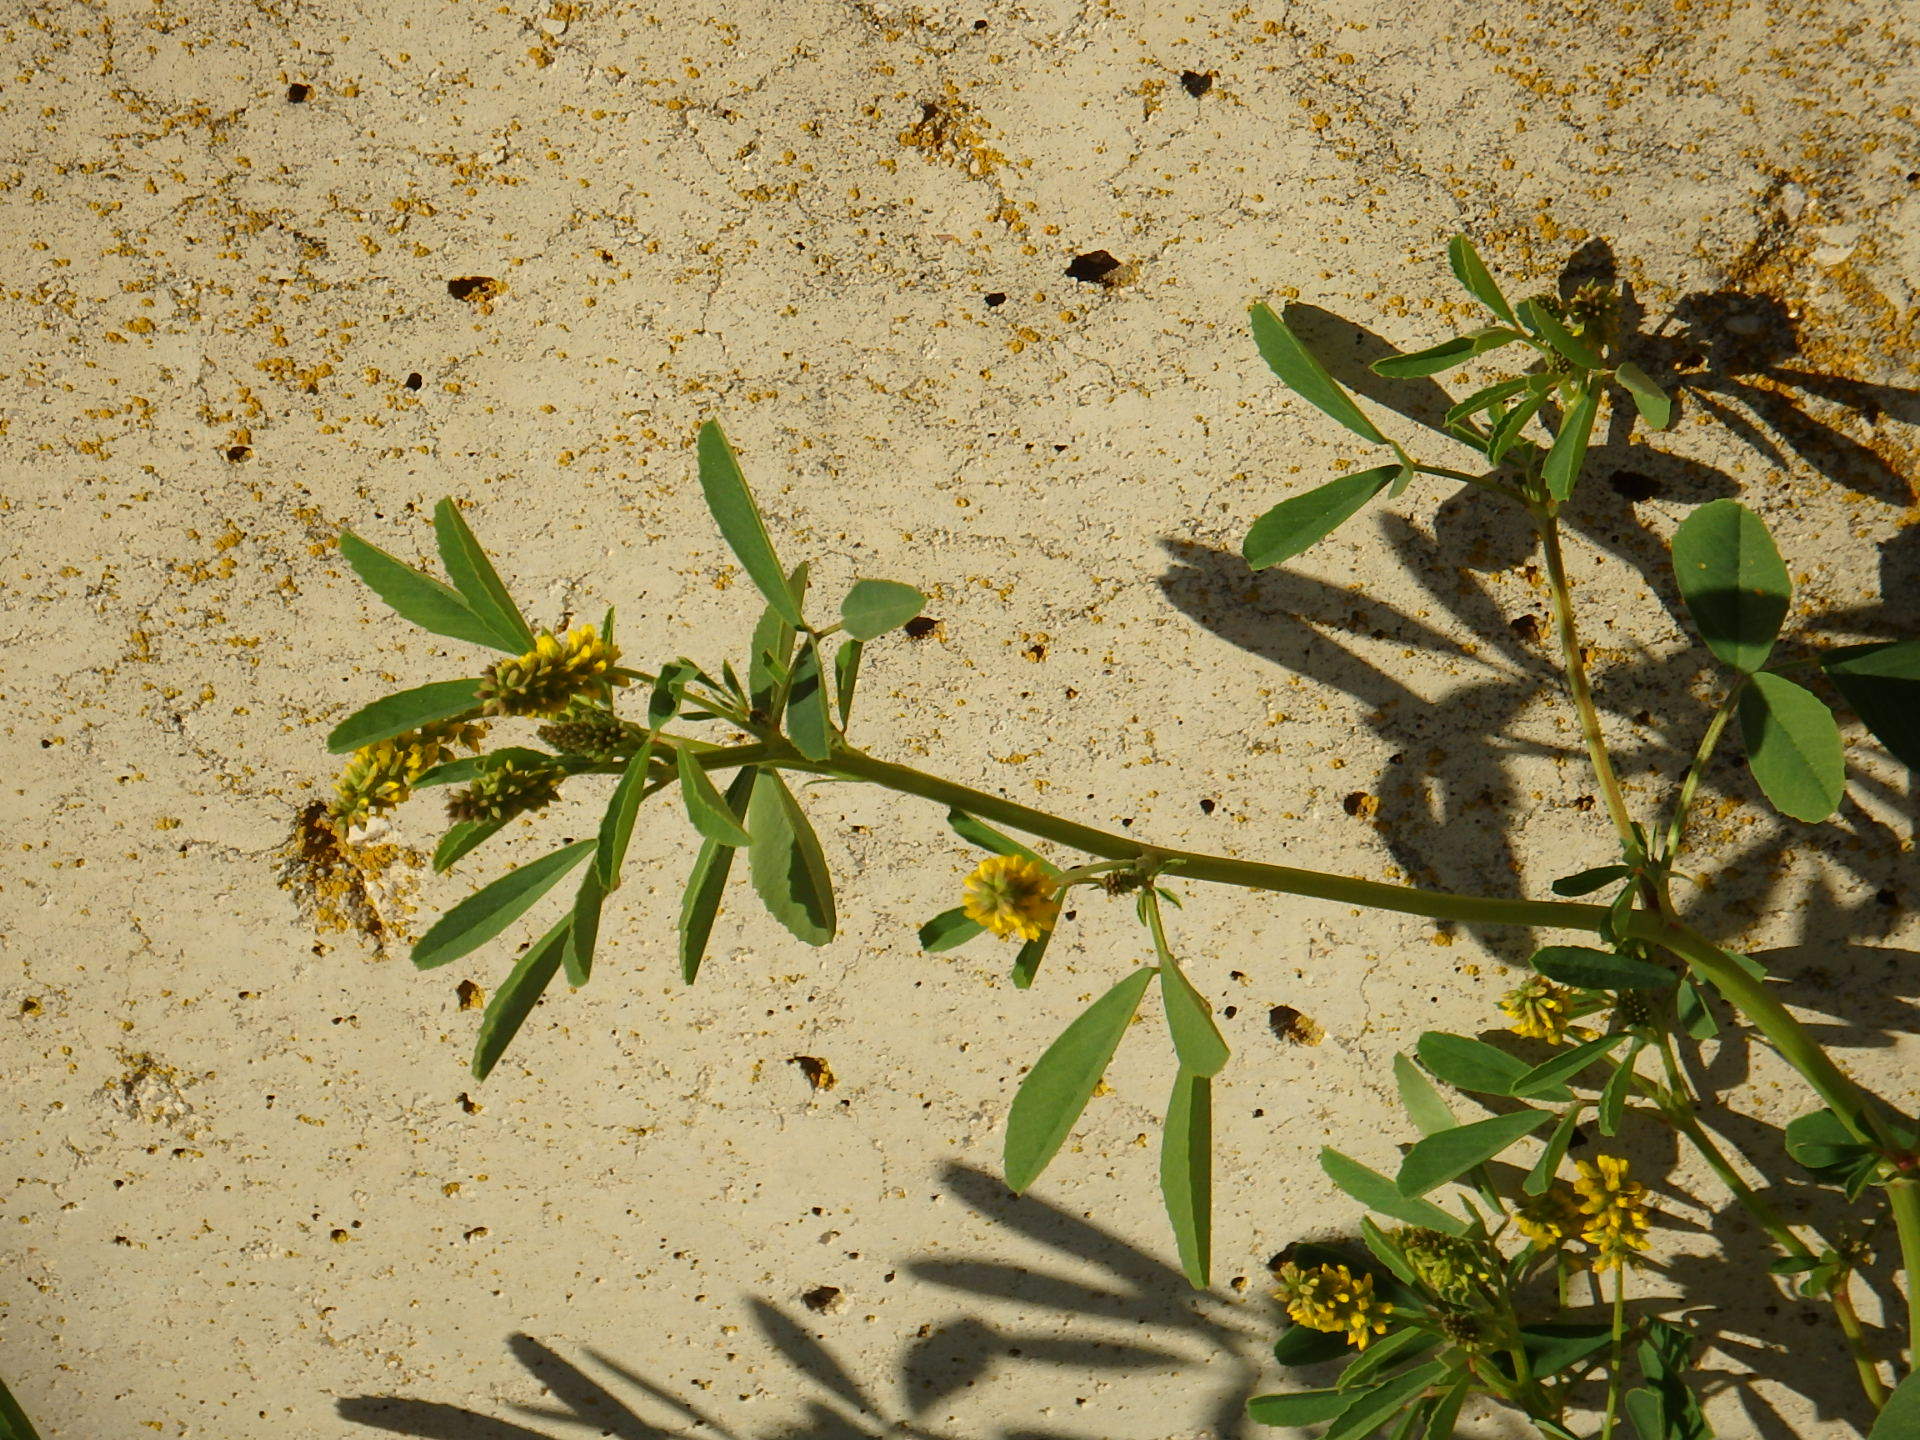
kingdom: Plantae
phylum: Tracheophyta
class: Magnoliopsida
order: Fabales
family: Fabaceae
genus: Melilotus
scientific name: Melilotus indicus
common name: Small melilot
